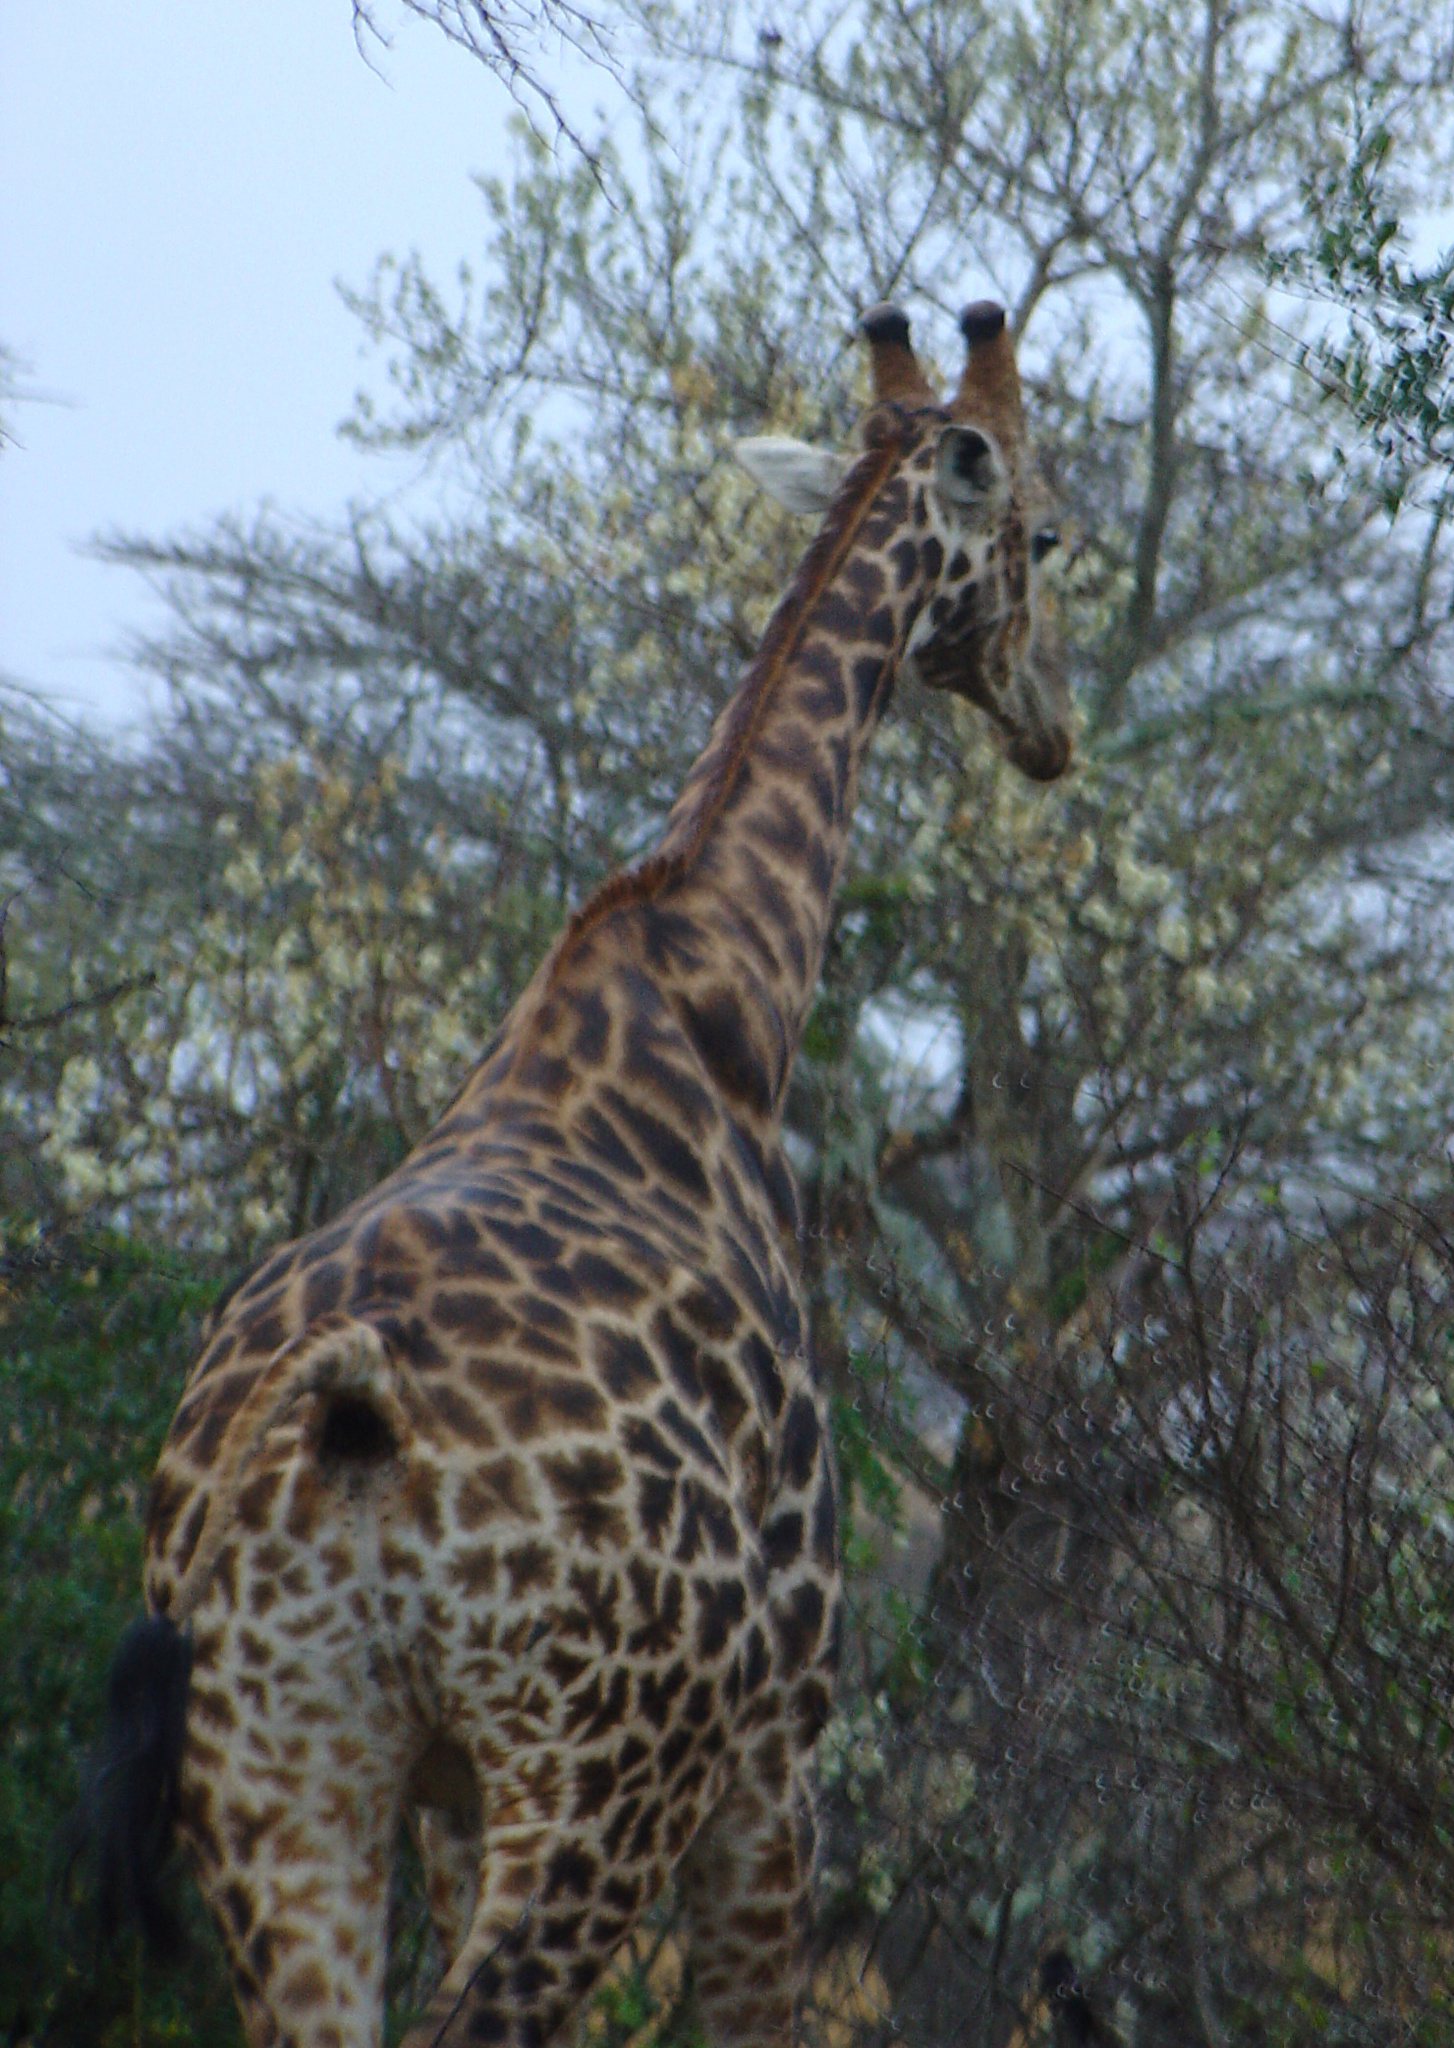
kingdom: Animalia
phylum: Chordata
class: Mammalia
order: Artiodactyla
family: Giraffidae
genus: Giraffa
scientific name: Giraffa giraffa
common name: Southern giraffe
